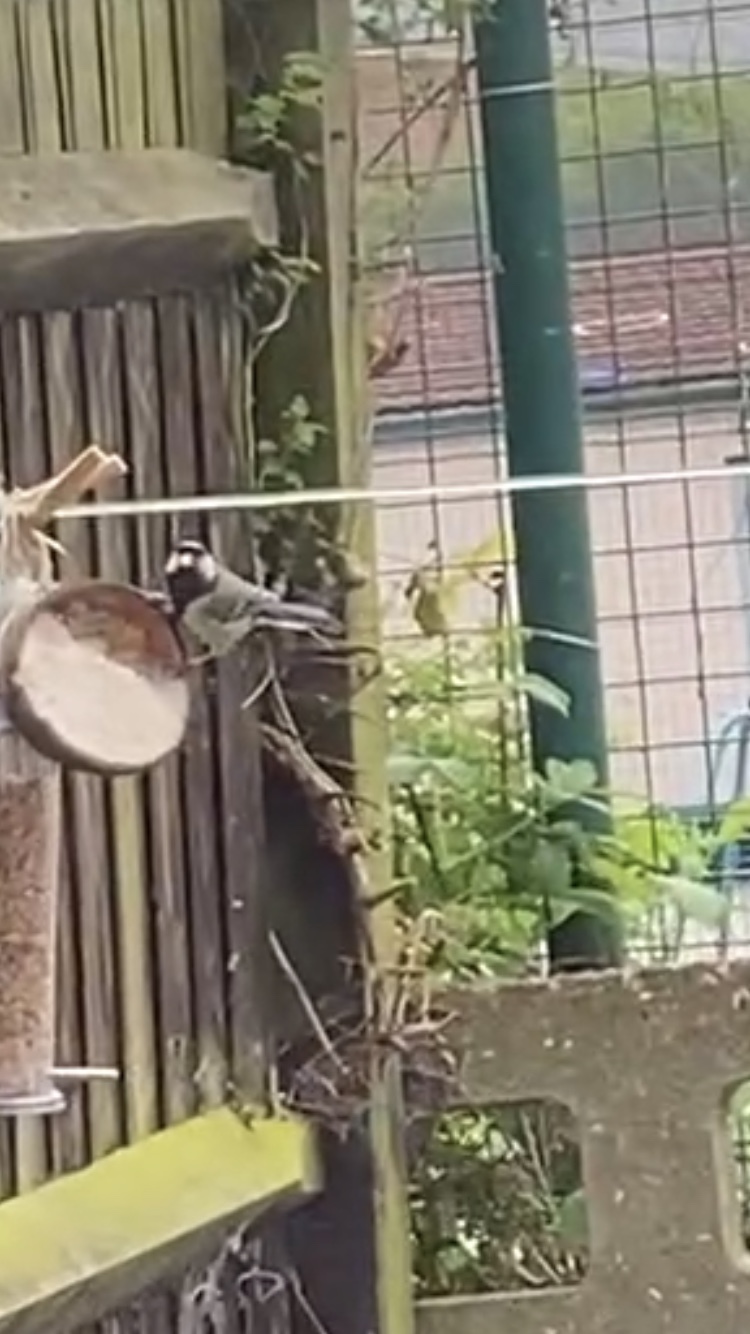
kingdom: Animalia
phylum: Chordata
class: Aves
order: Passeriformes
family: Paridae
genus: Parus
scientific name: Parus major
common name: Great tit
